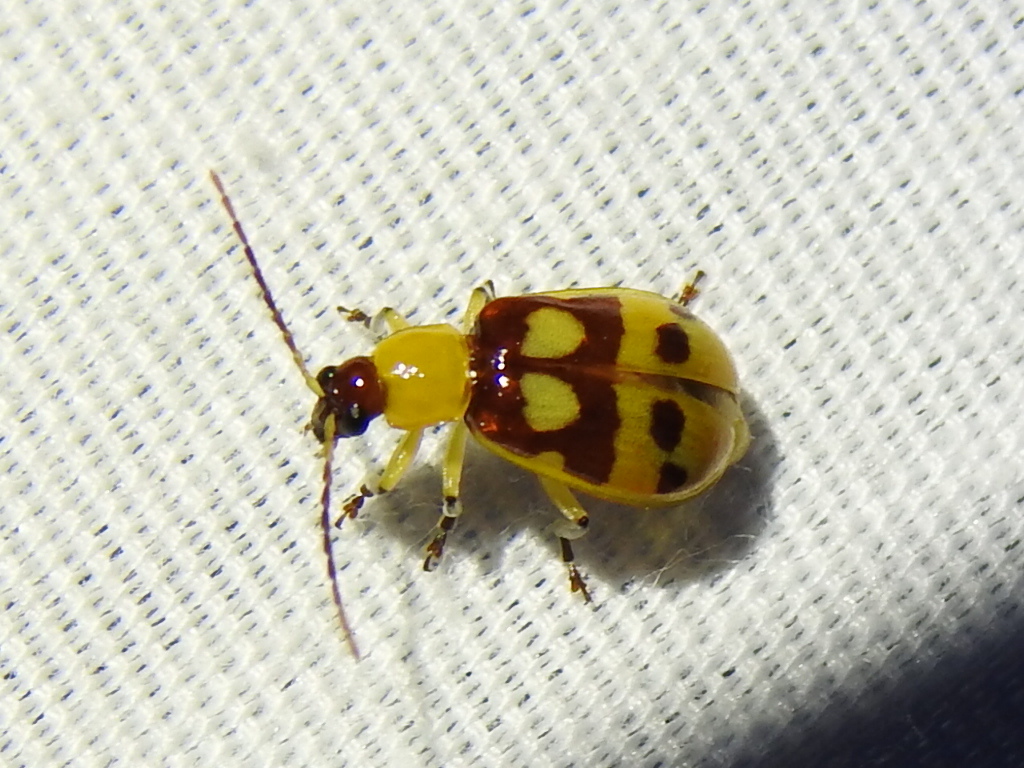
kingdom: Animalia
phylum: Arthropoda
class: Insecta
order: Coleoptera
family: Chrysomelidae
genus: Paranapiacaba
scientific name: Paranapiacaba connexa
